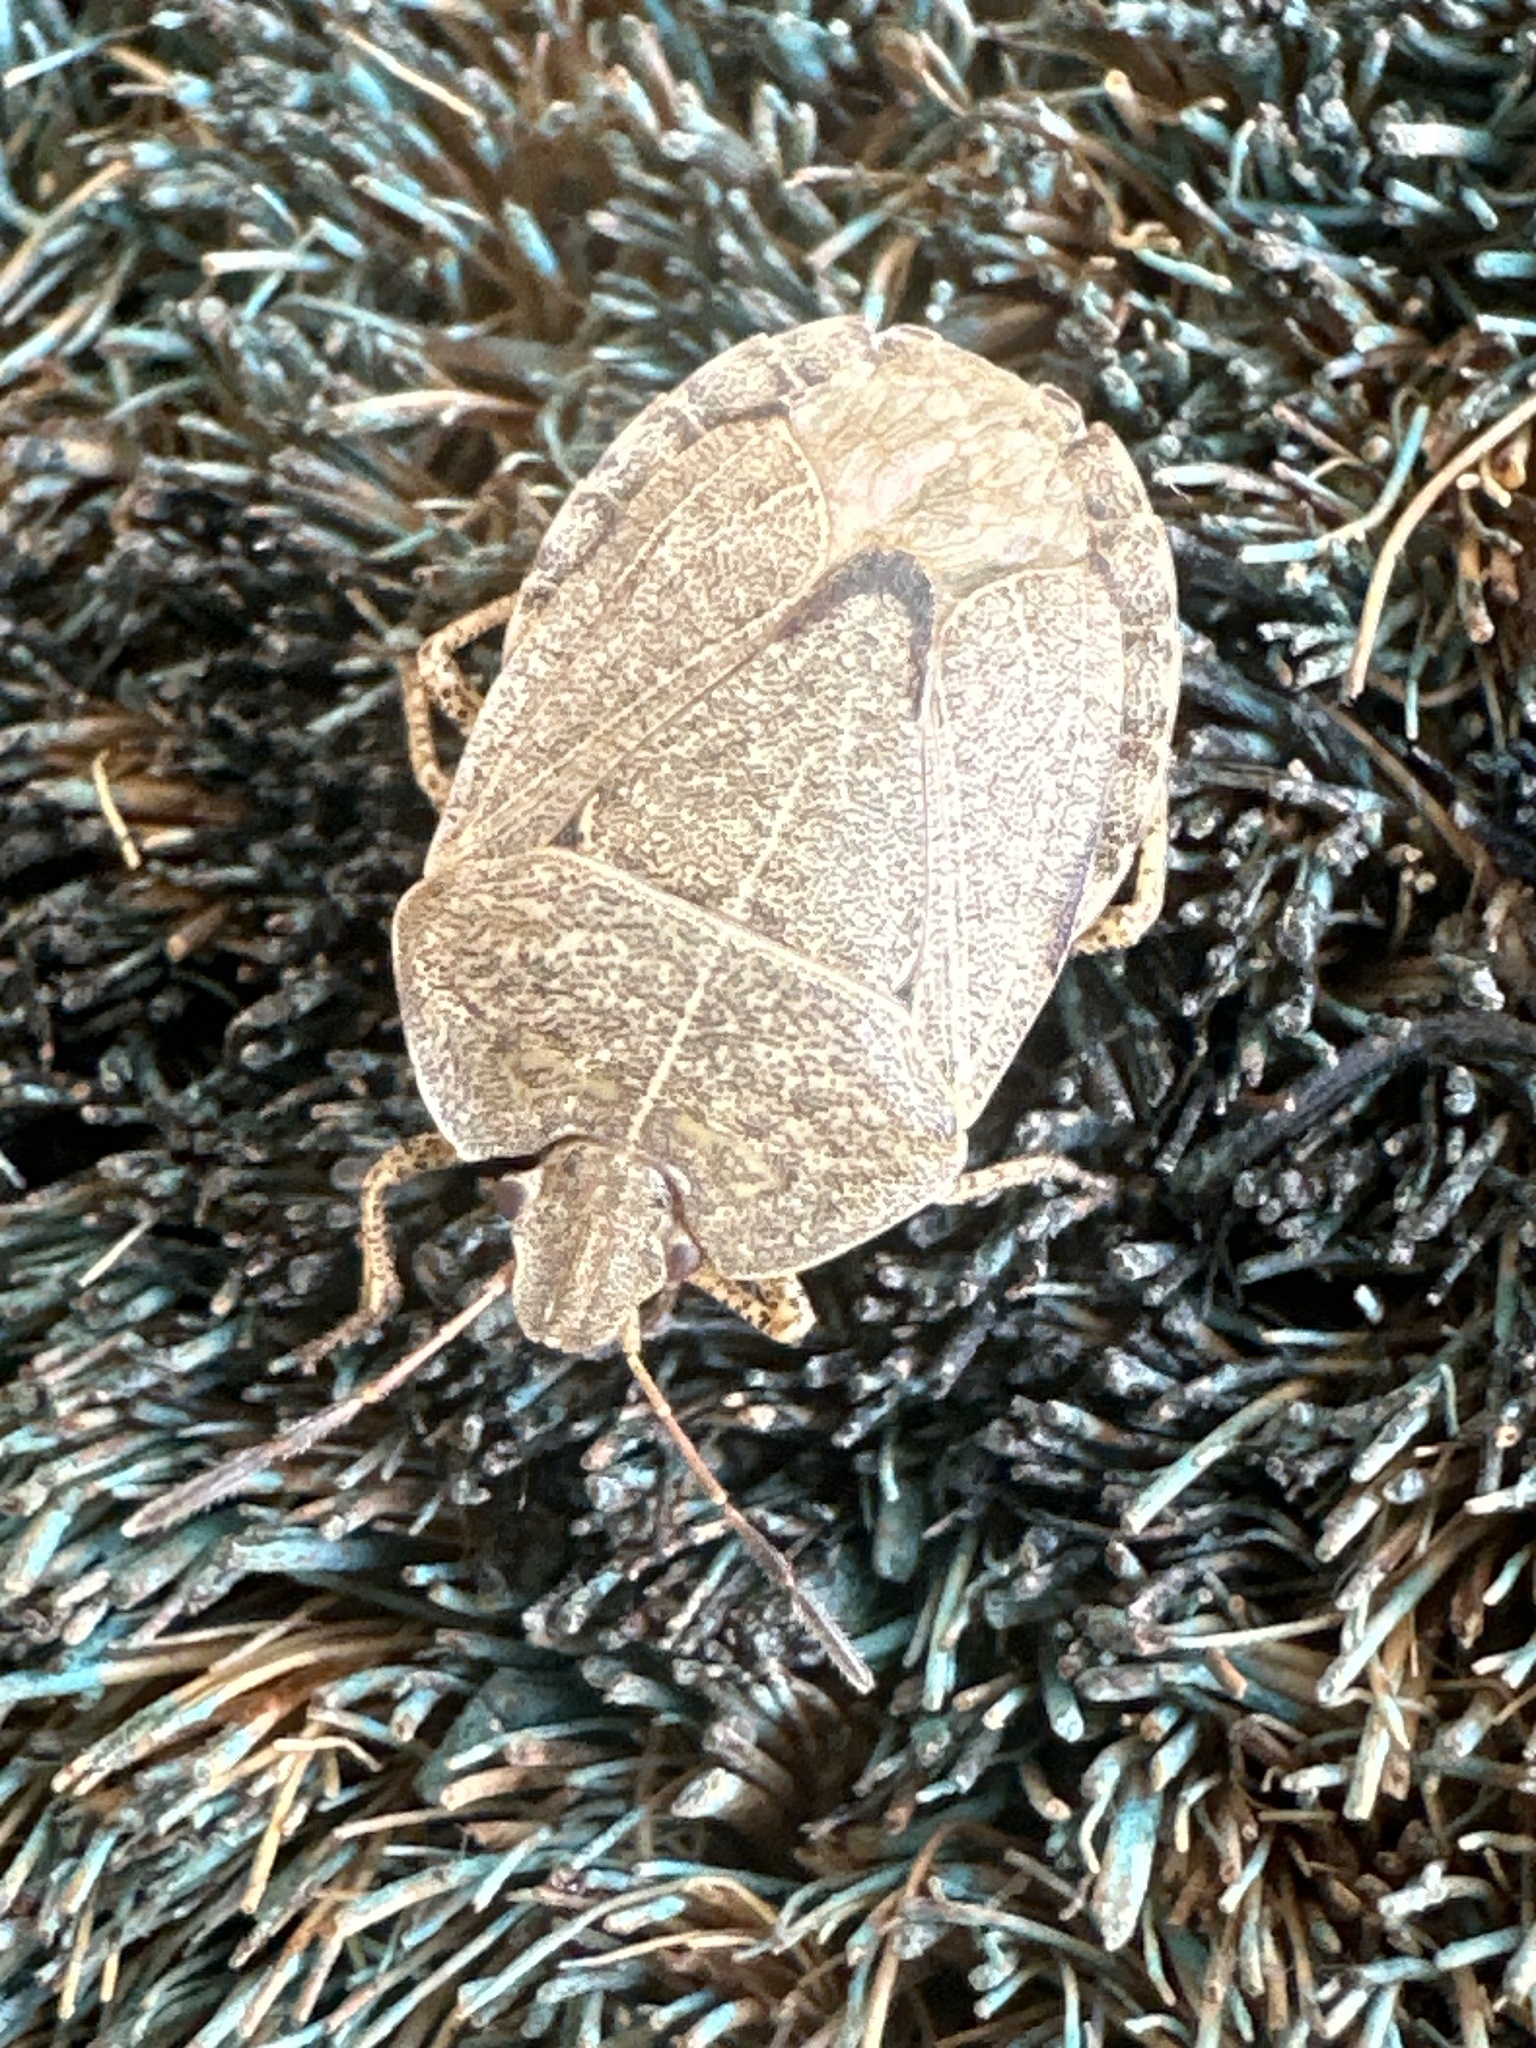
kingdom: Animalia
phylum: Arthropoda
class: Insecta
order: Hemiptera
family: Pentatomidae
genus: Menecles
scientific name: Menecles insertus
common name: Elf shoe stink bug
